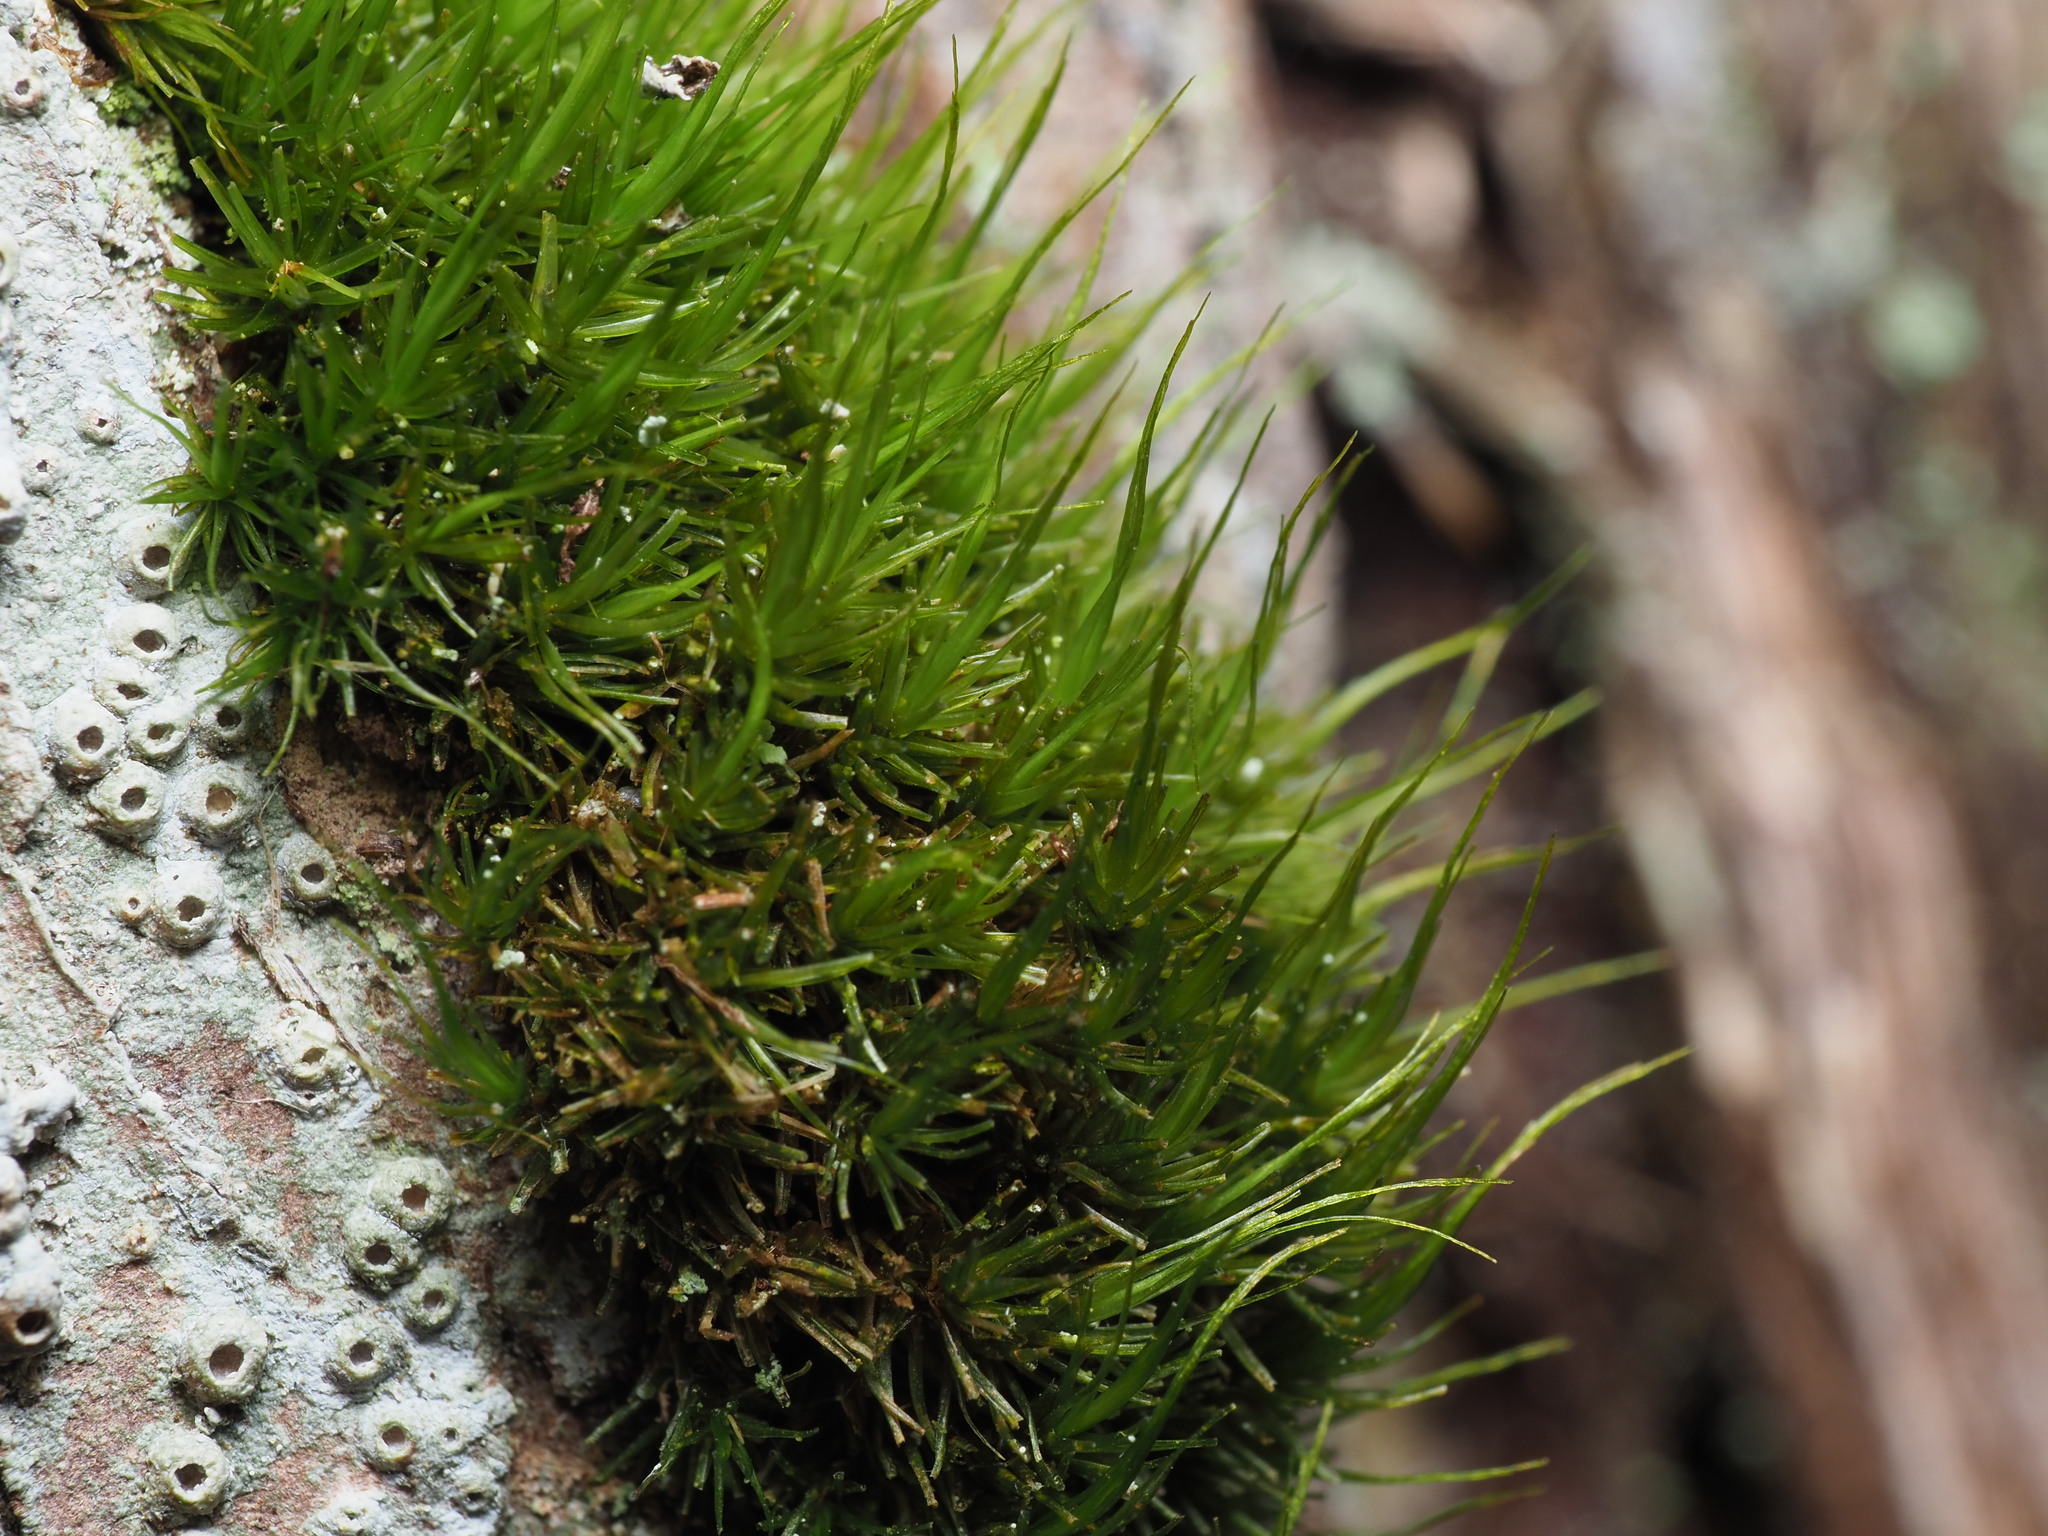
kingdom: Plantae
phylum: Bryophyta
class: Bryopsida
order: Dicranales
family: Dicranaceae
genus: Orthodicranum
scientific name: Orthodicranum tauricum
